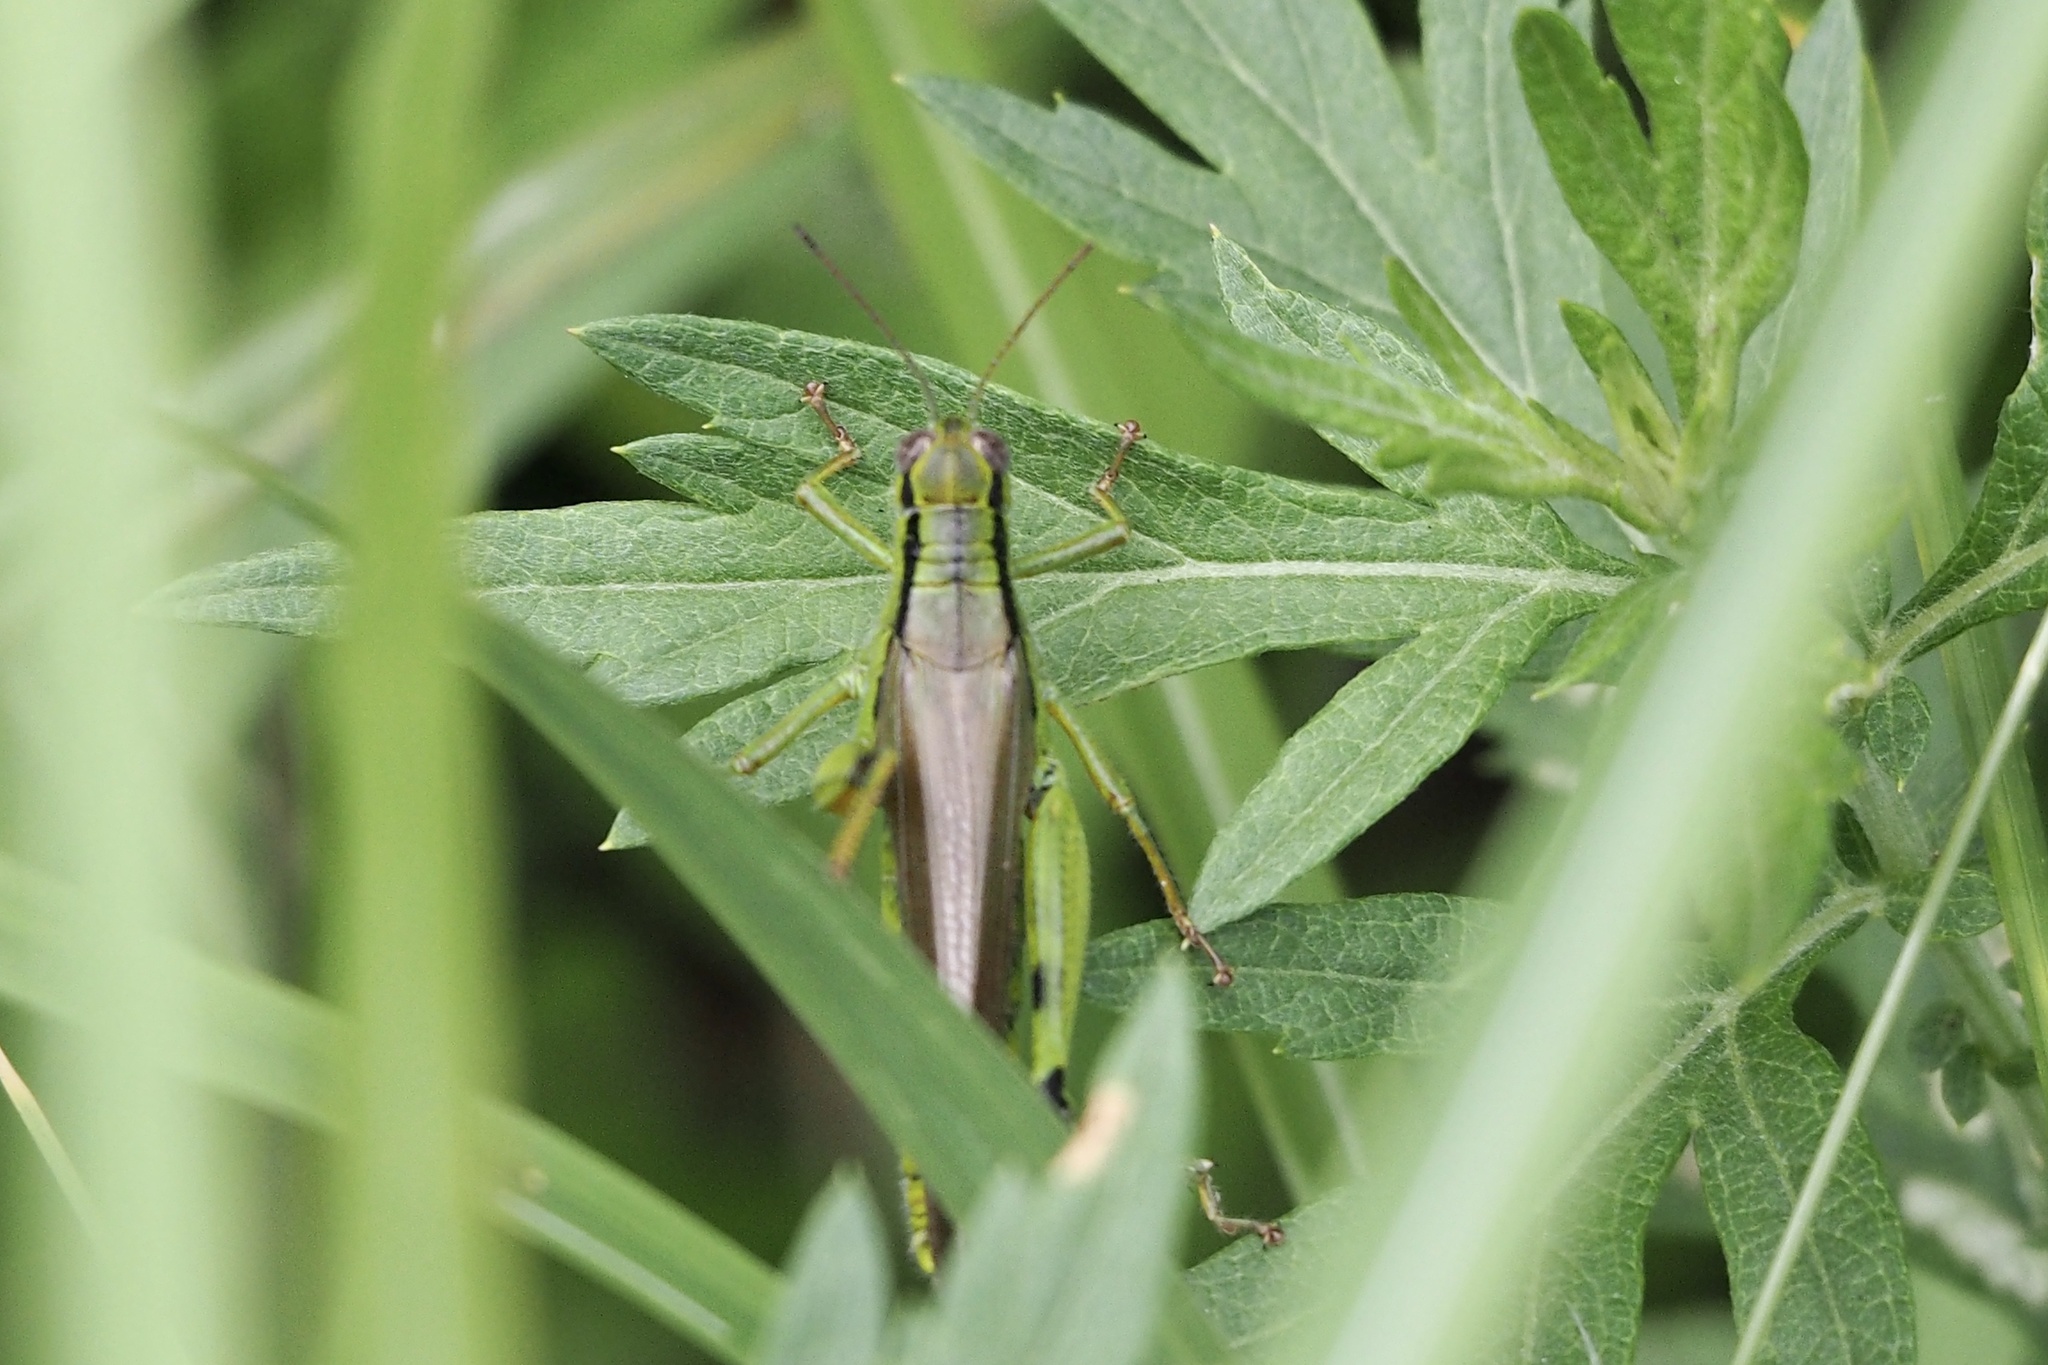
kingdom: Animalia
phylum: Arthropoda
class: Insecta
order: Orthoptera
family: Acrididae
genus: Confusacris
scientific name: Confusacris longipennis
